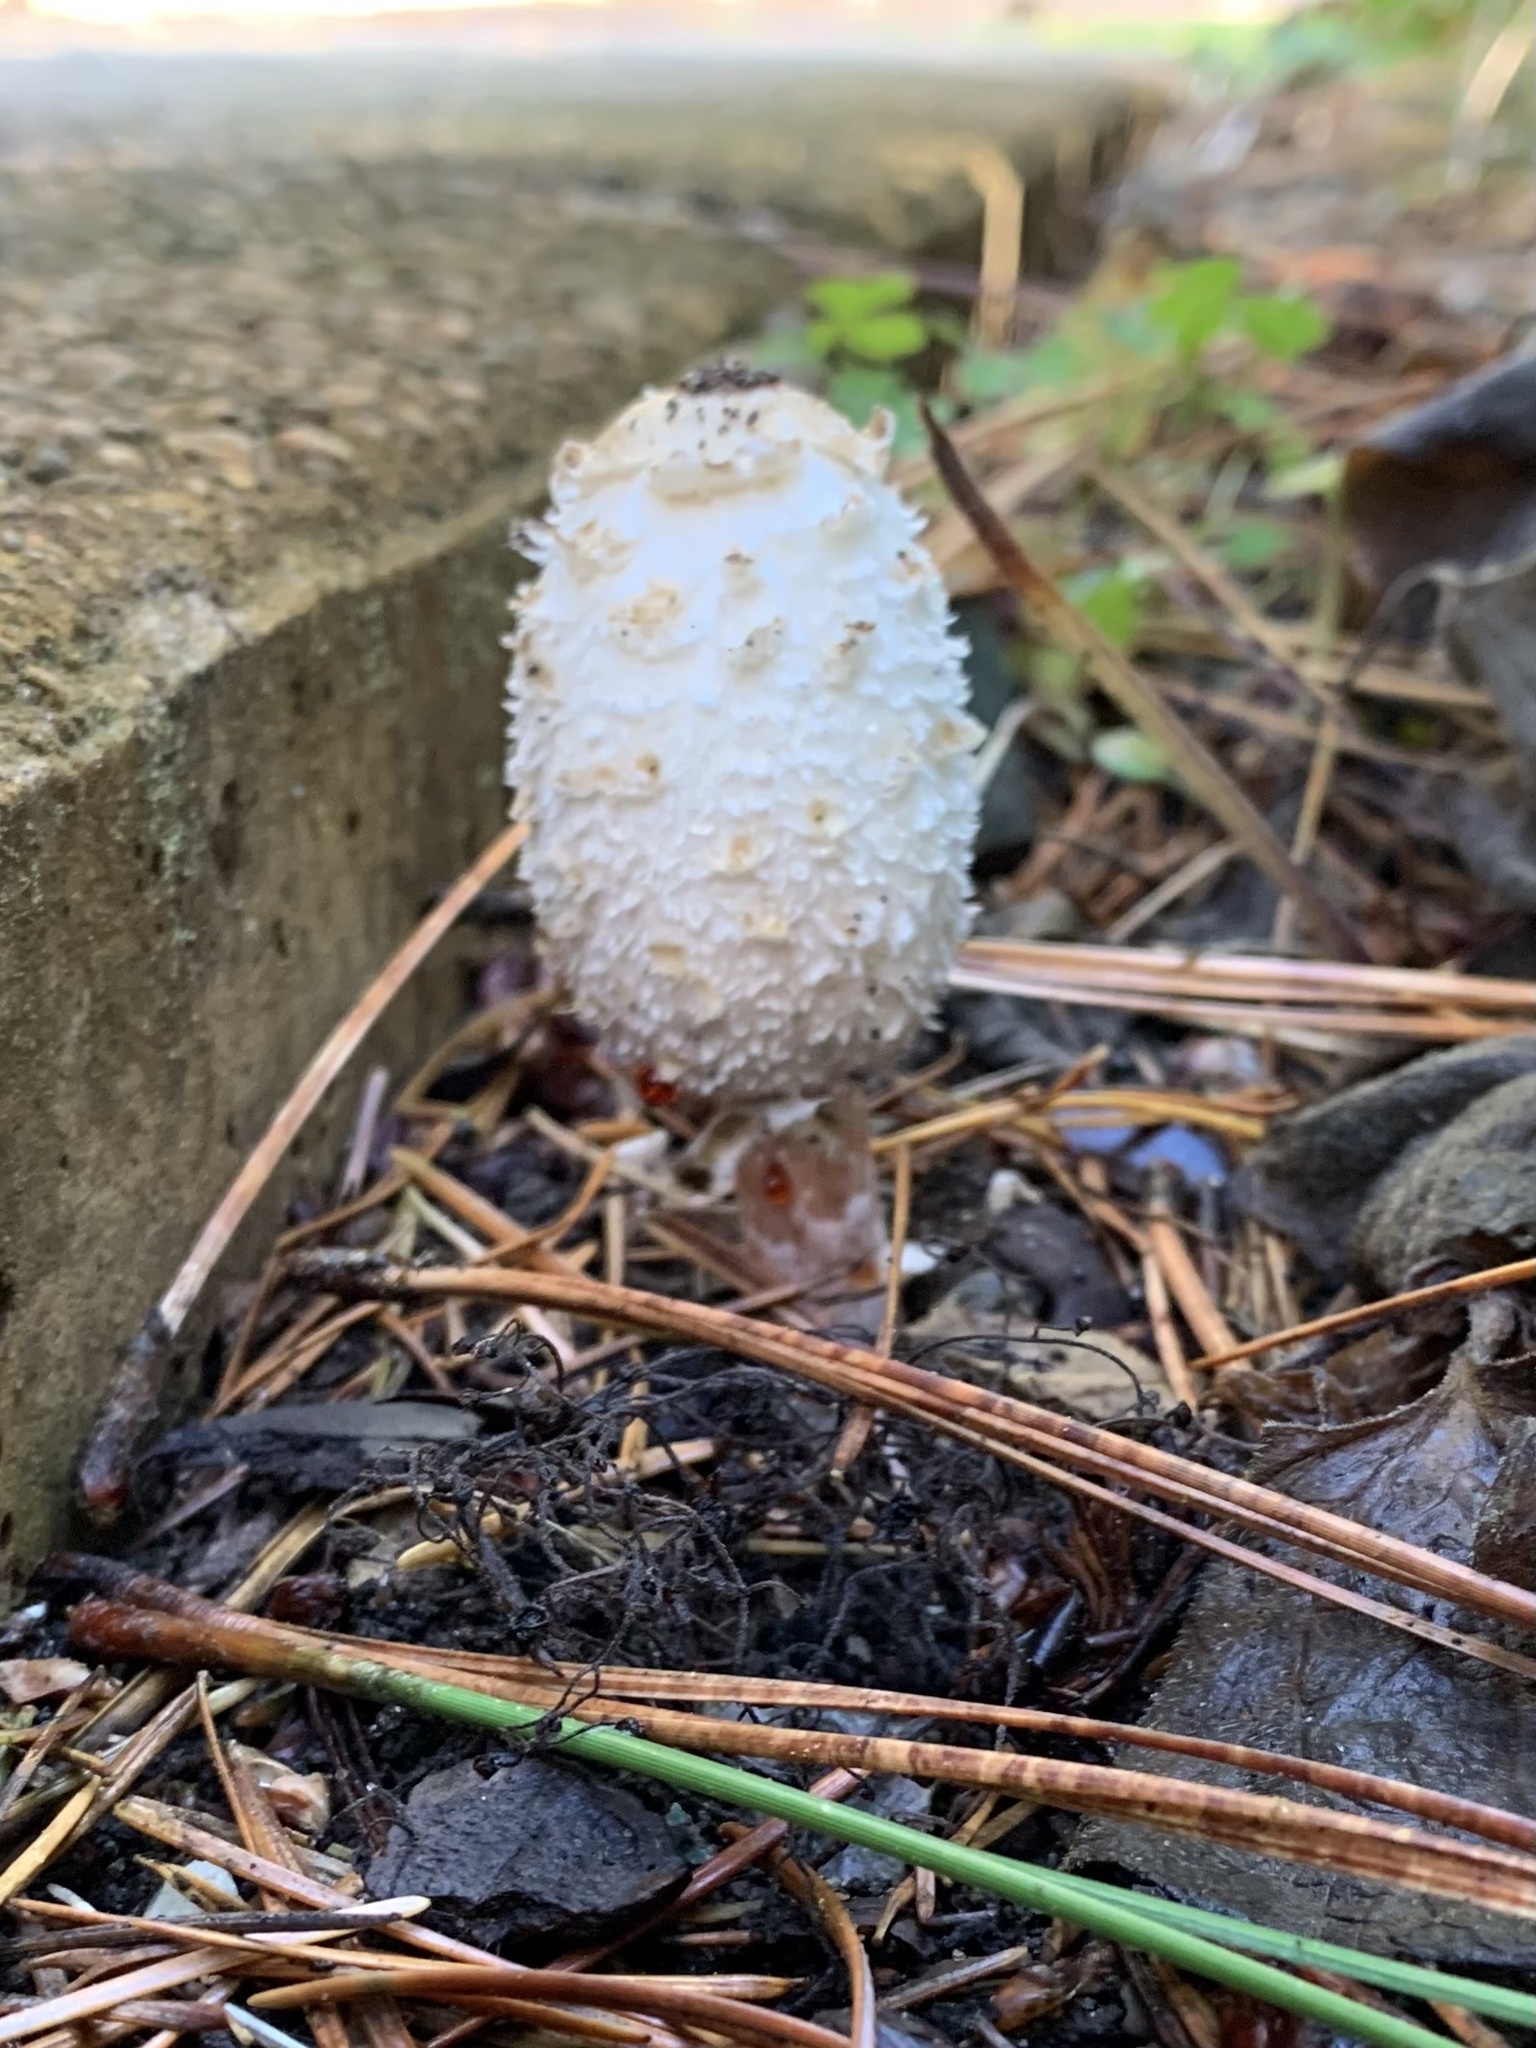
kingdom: Fungi
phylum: Basidiomycota
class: Agaricomycetes
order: Agaricales
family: Agaricaceae
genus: Coprinus
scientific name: Coprinus comatus
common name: Lawyer's wig
